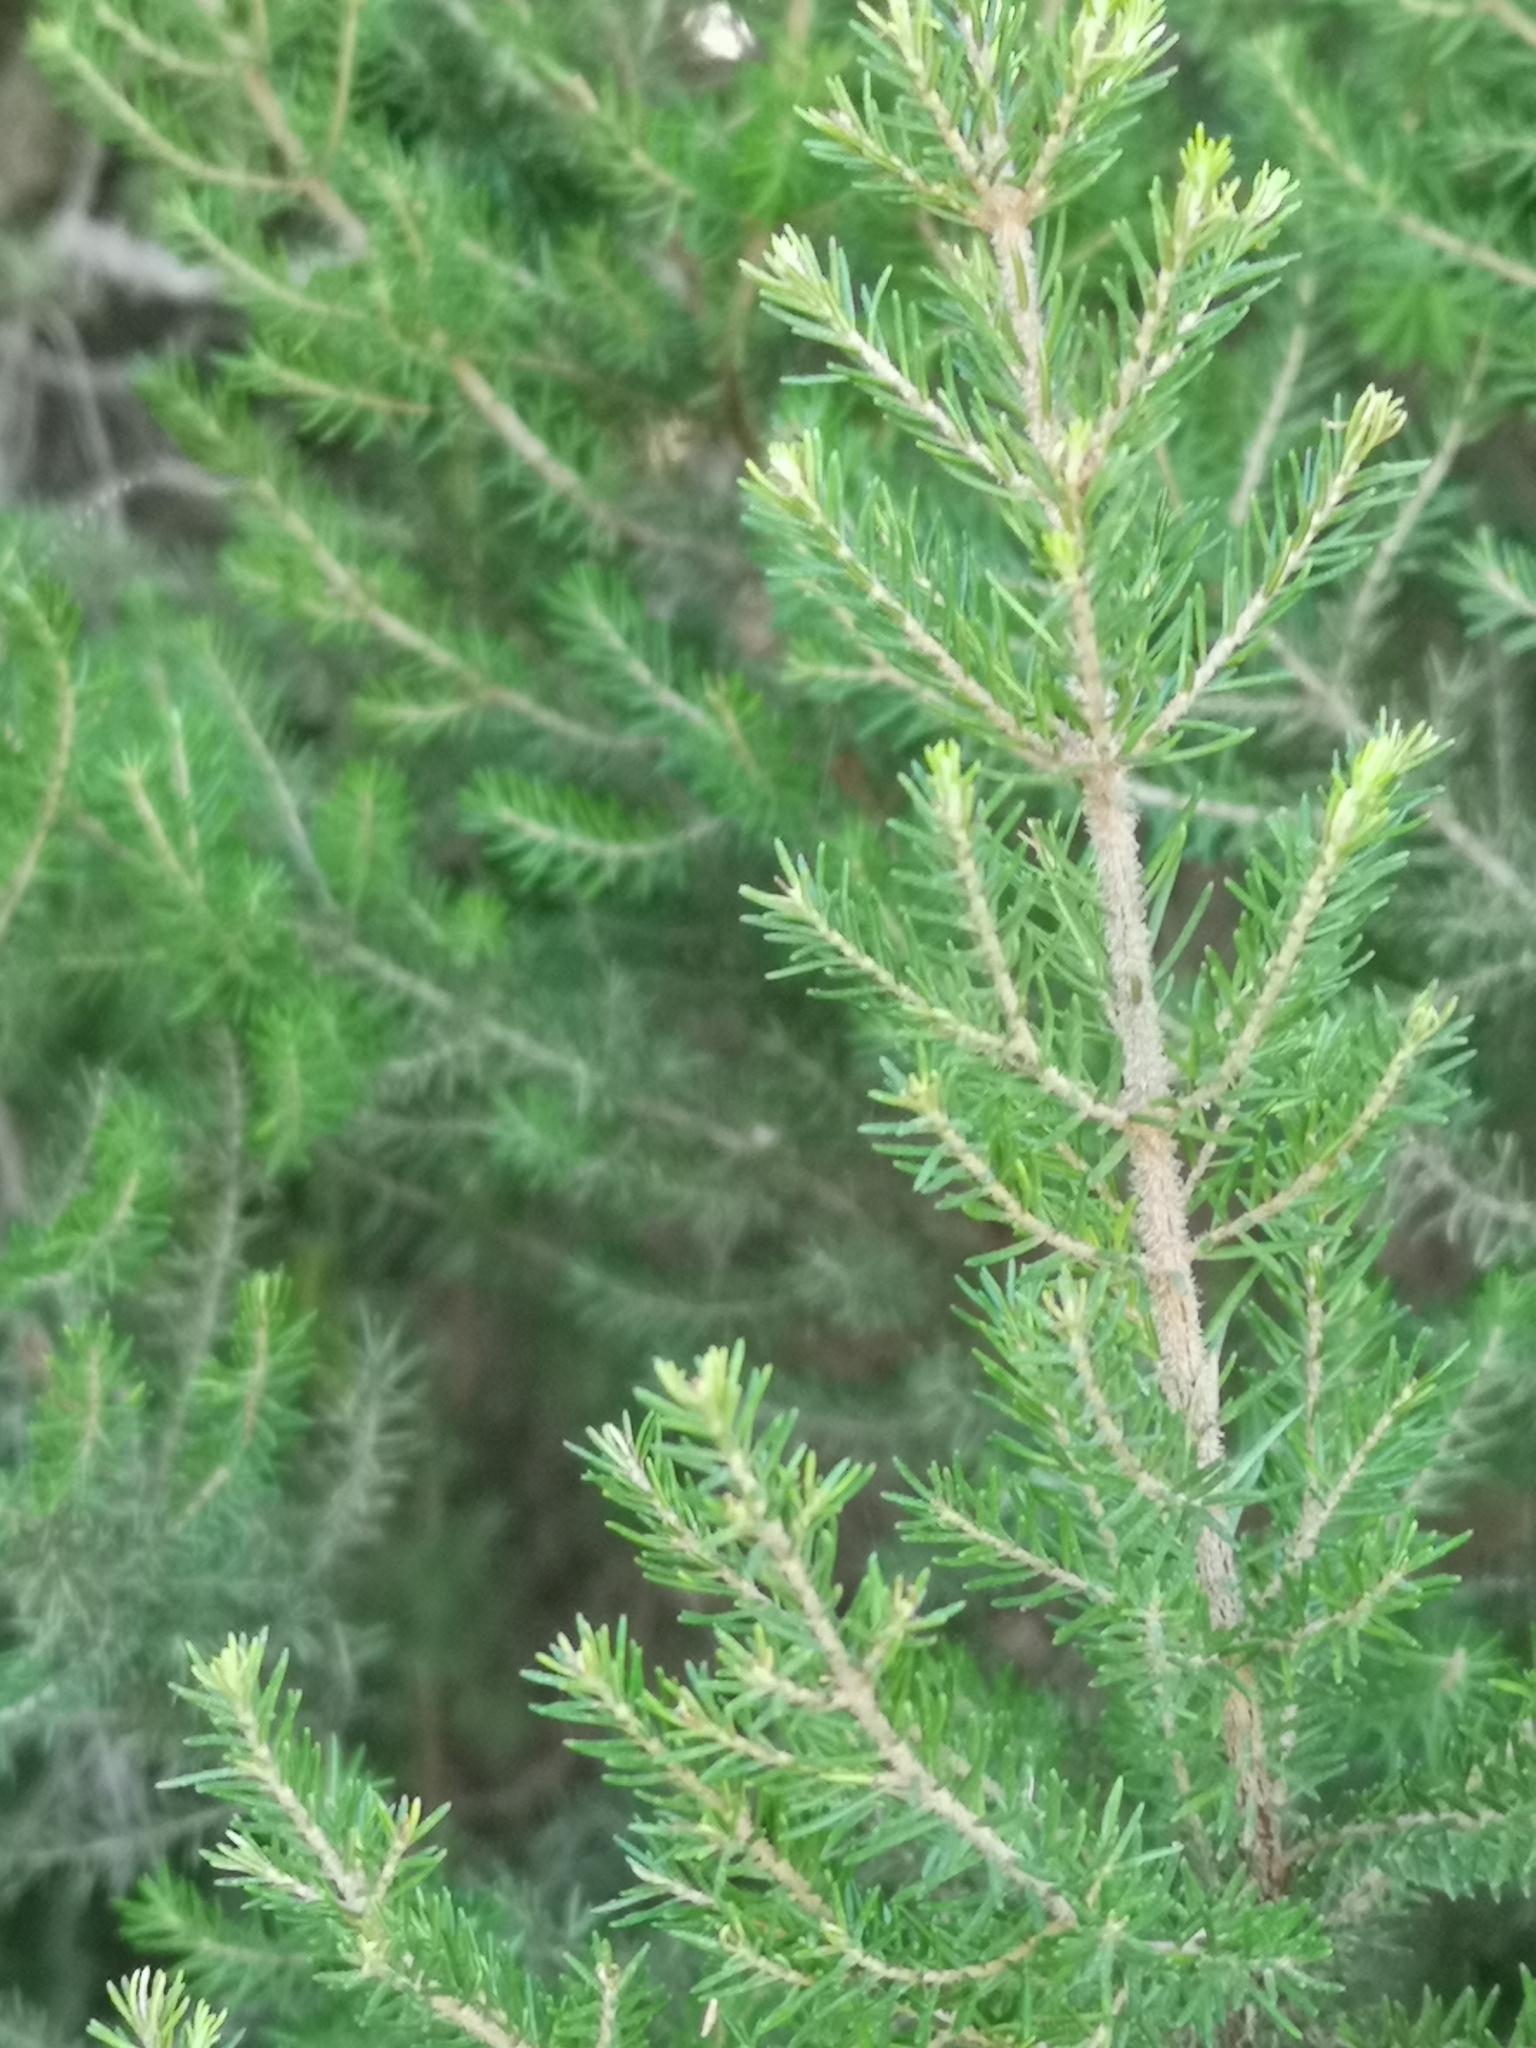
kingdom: Plantae
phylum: Tracheophyta
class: Magnoliopsida
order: Ericales
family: Ericaceae
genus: Erica
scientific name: Erica canariensis
